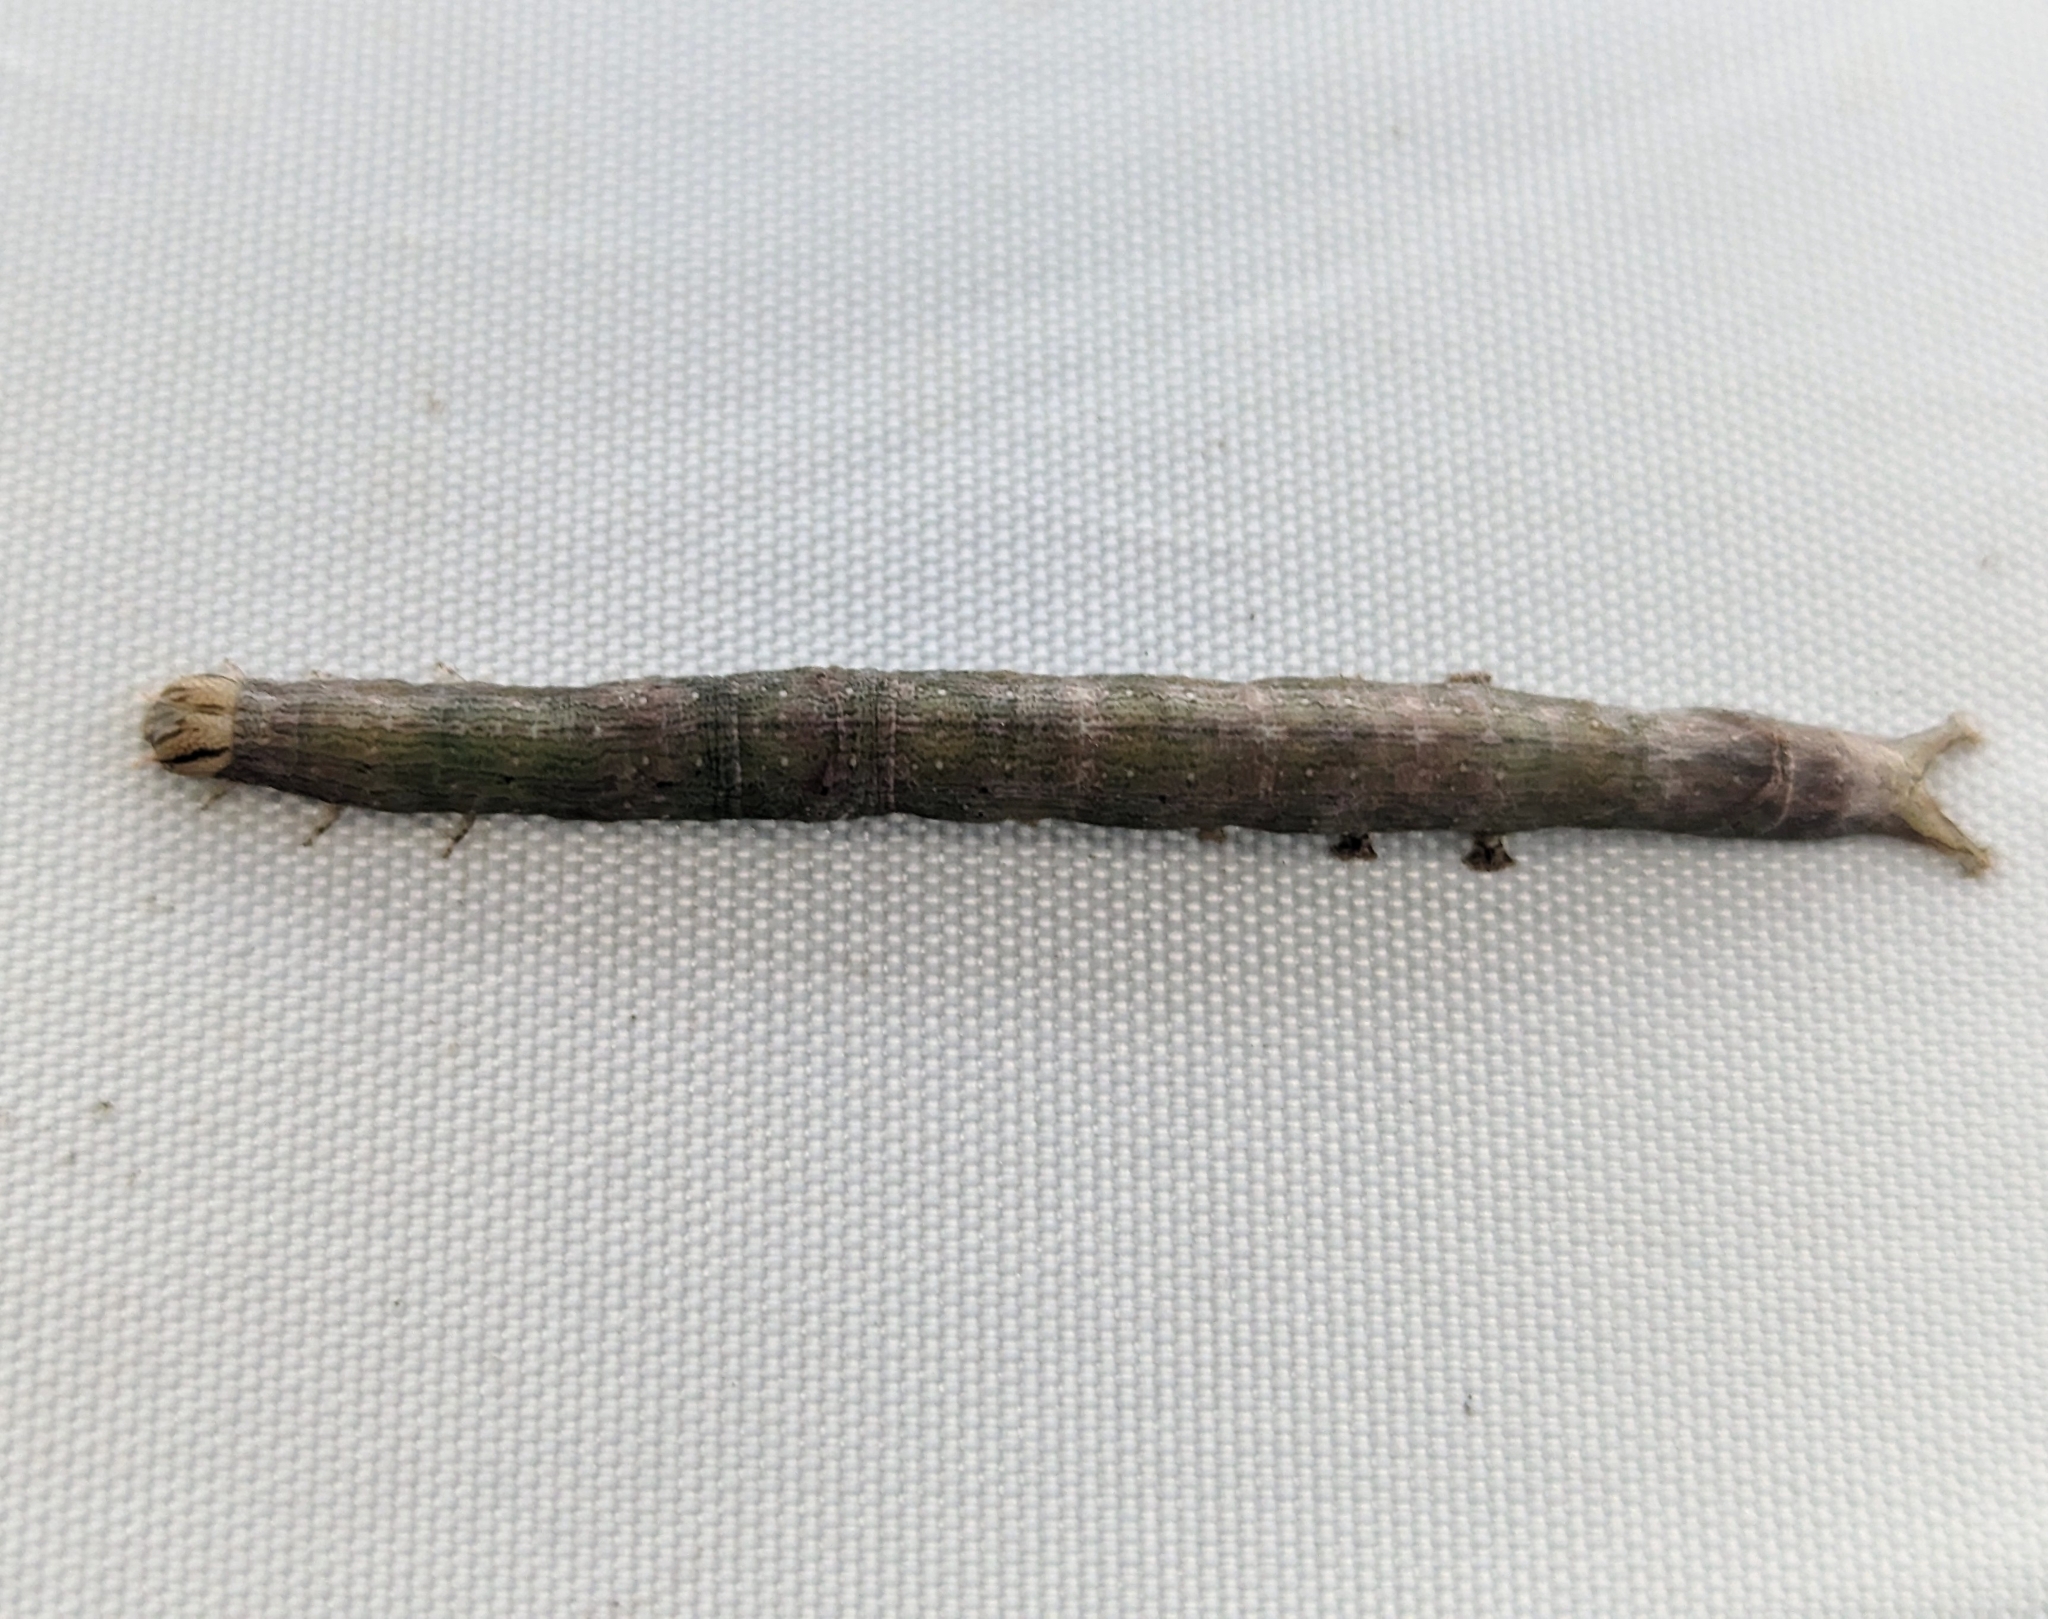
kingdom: Animalia
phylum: Arthropoda
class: Insecta
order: Lepidoptera
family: Erebidae
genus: Parallelia
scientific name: Parallelia bistriaris
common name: Maple looper moth
